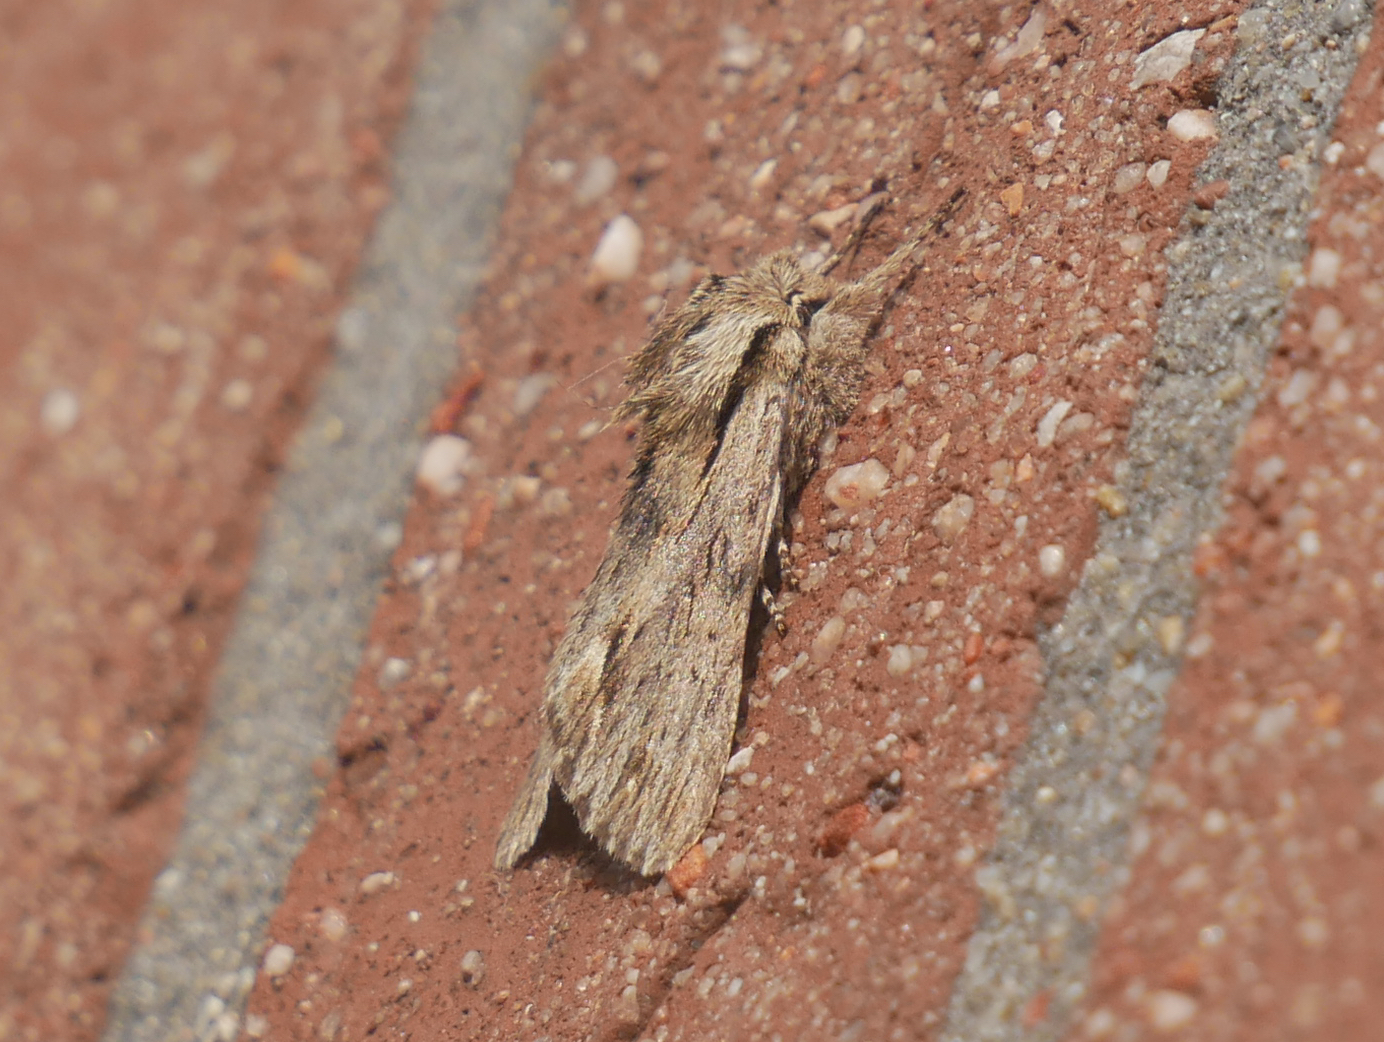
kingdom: Animalia
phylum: Arthropoda
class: Insecta
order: Lepidoptera
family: Noctuidae
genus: Asteroscopus
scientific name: Asteroscopus sphinx
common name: The sprawler
